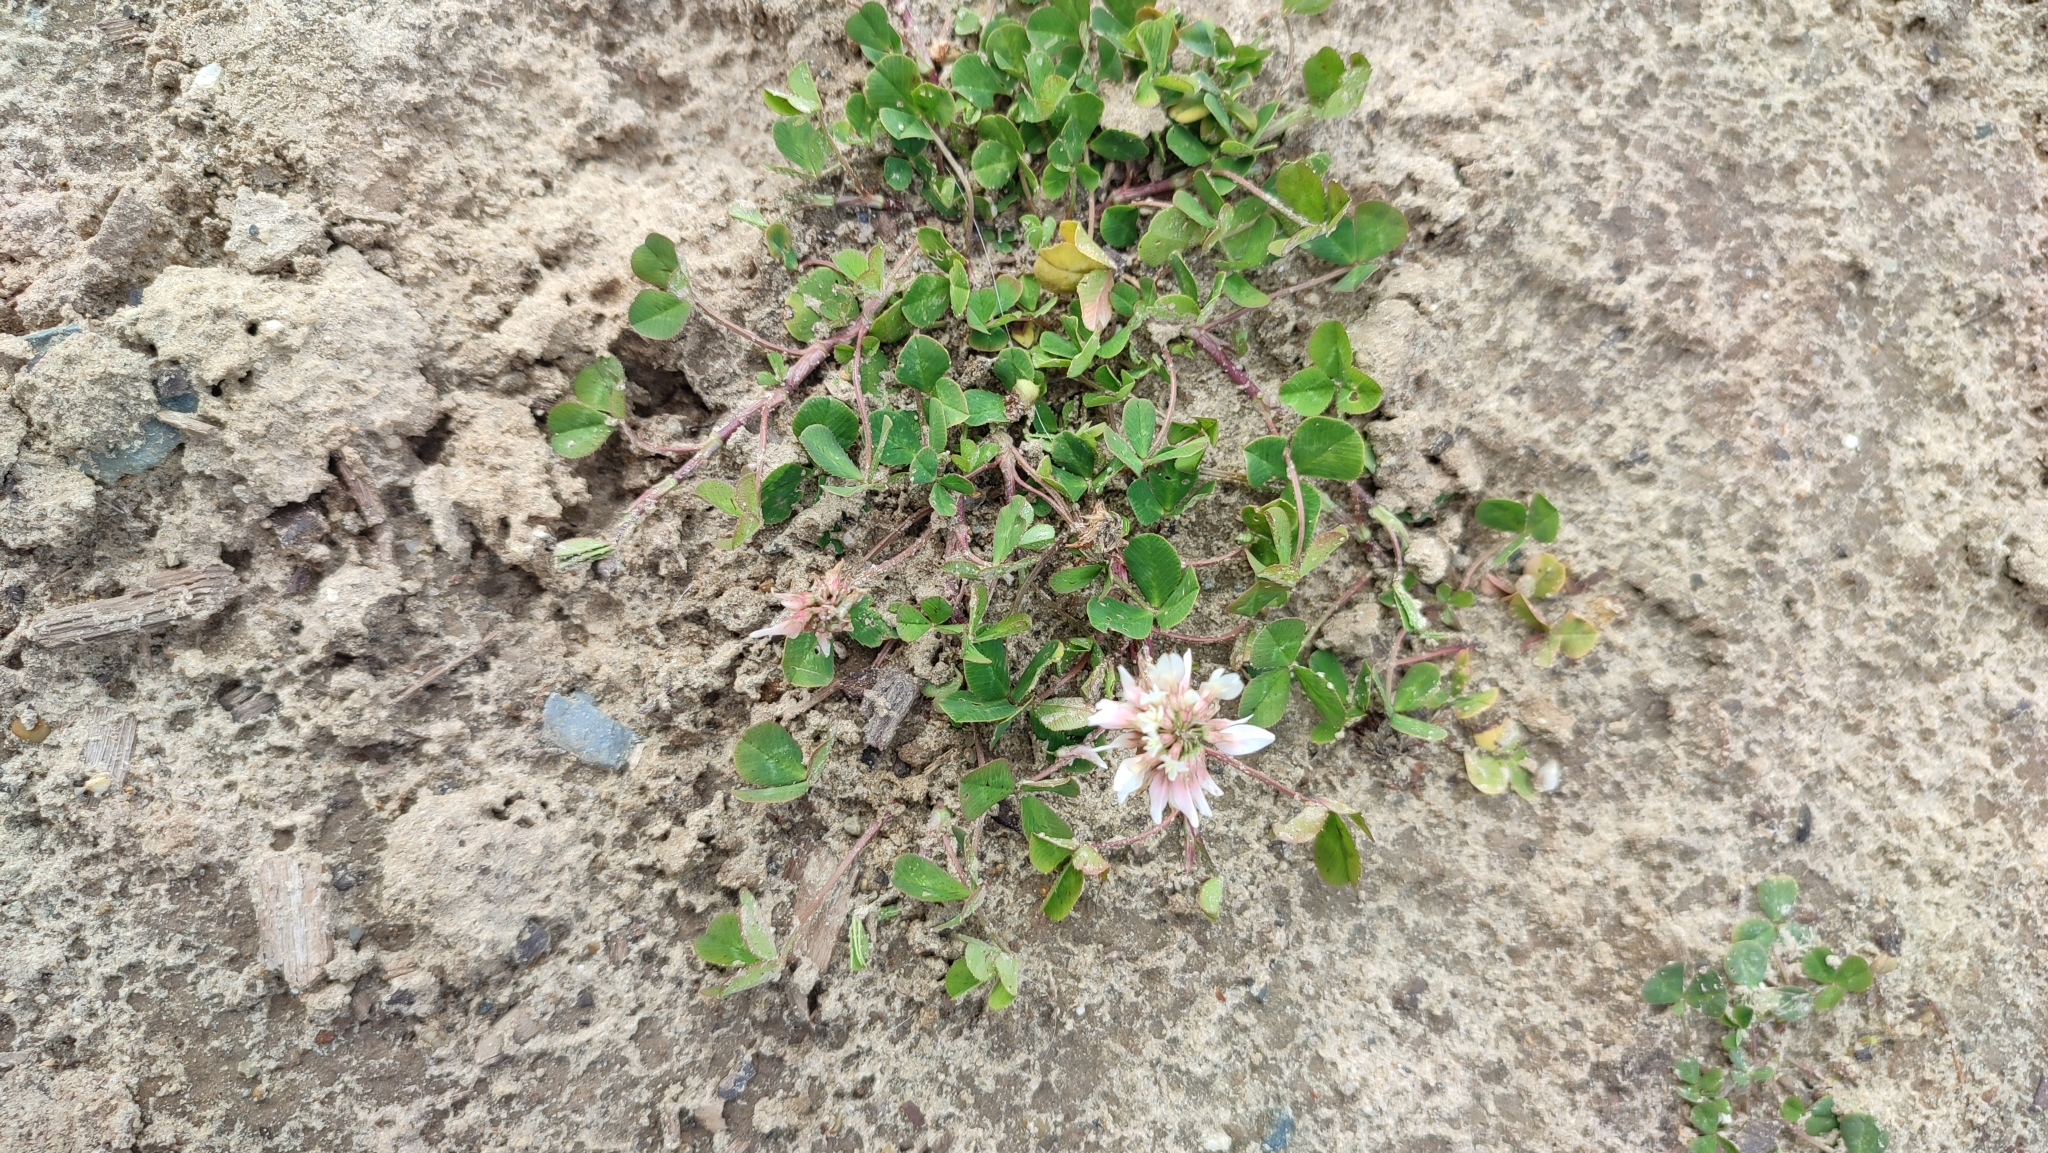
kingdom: Plantae
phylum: Tracheophyta
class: Magnoliopsida
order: Fabales
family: Fabaceae
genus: Trifolium
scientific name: Trifolium hybridum
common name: Alsike clover
